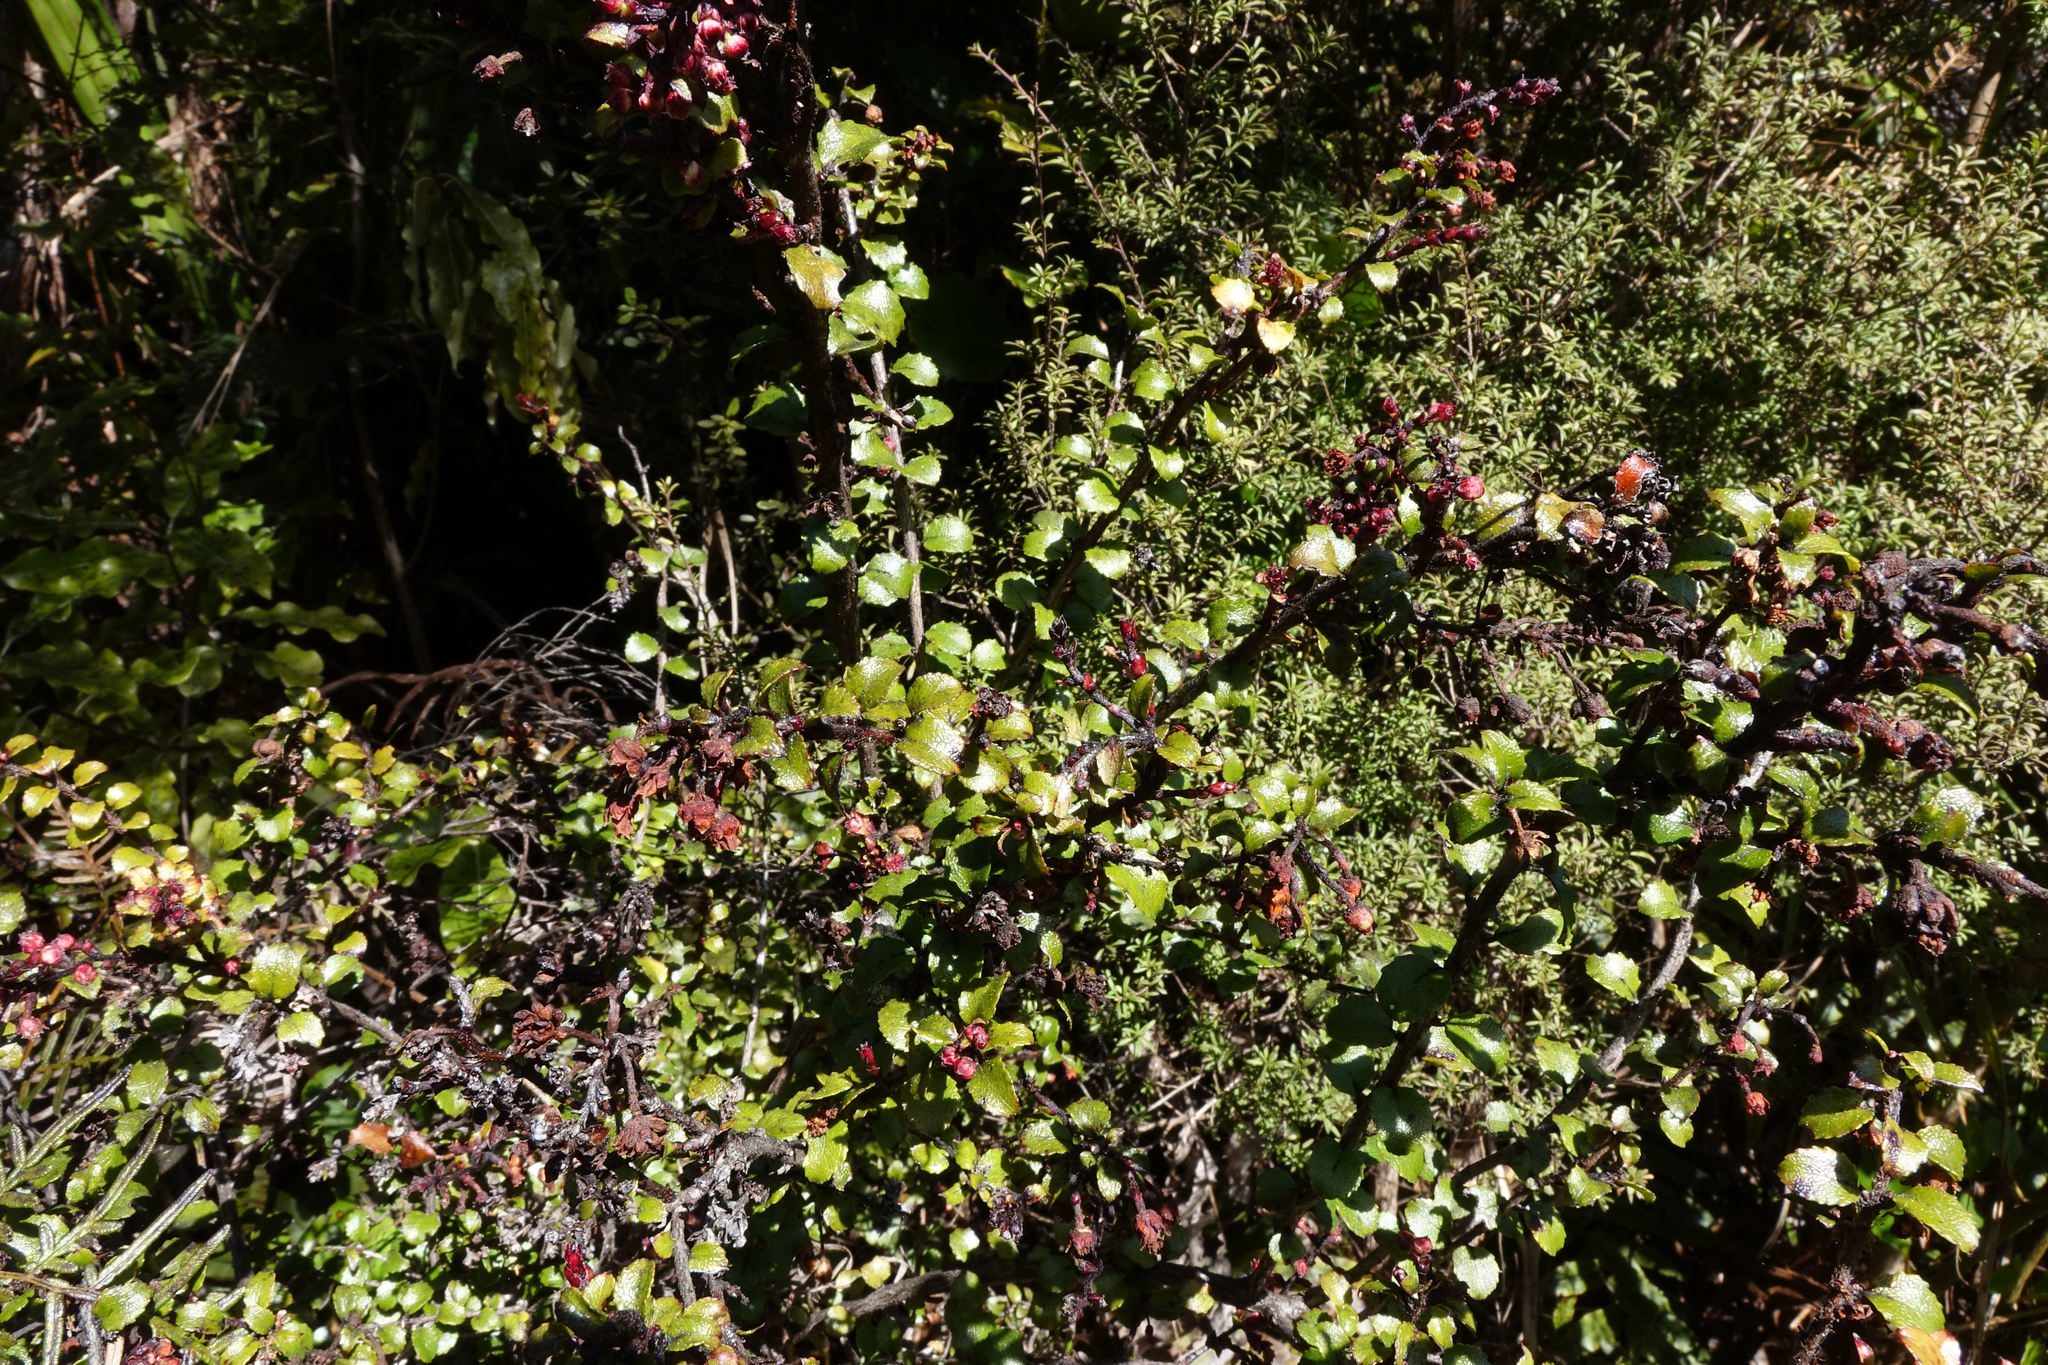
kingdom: Plantae
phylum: Tracheophyta
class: Magnoliopsida
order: Ericales
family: Ericaceae
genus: Gaultheria
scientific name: Gaultheria antipoda
